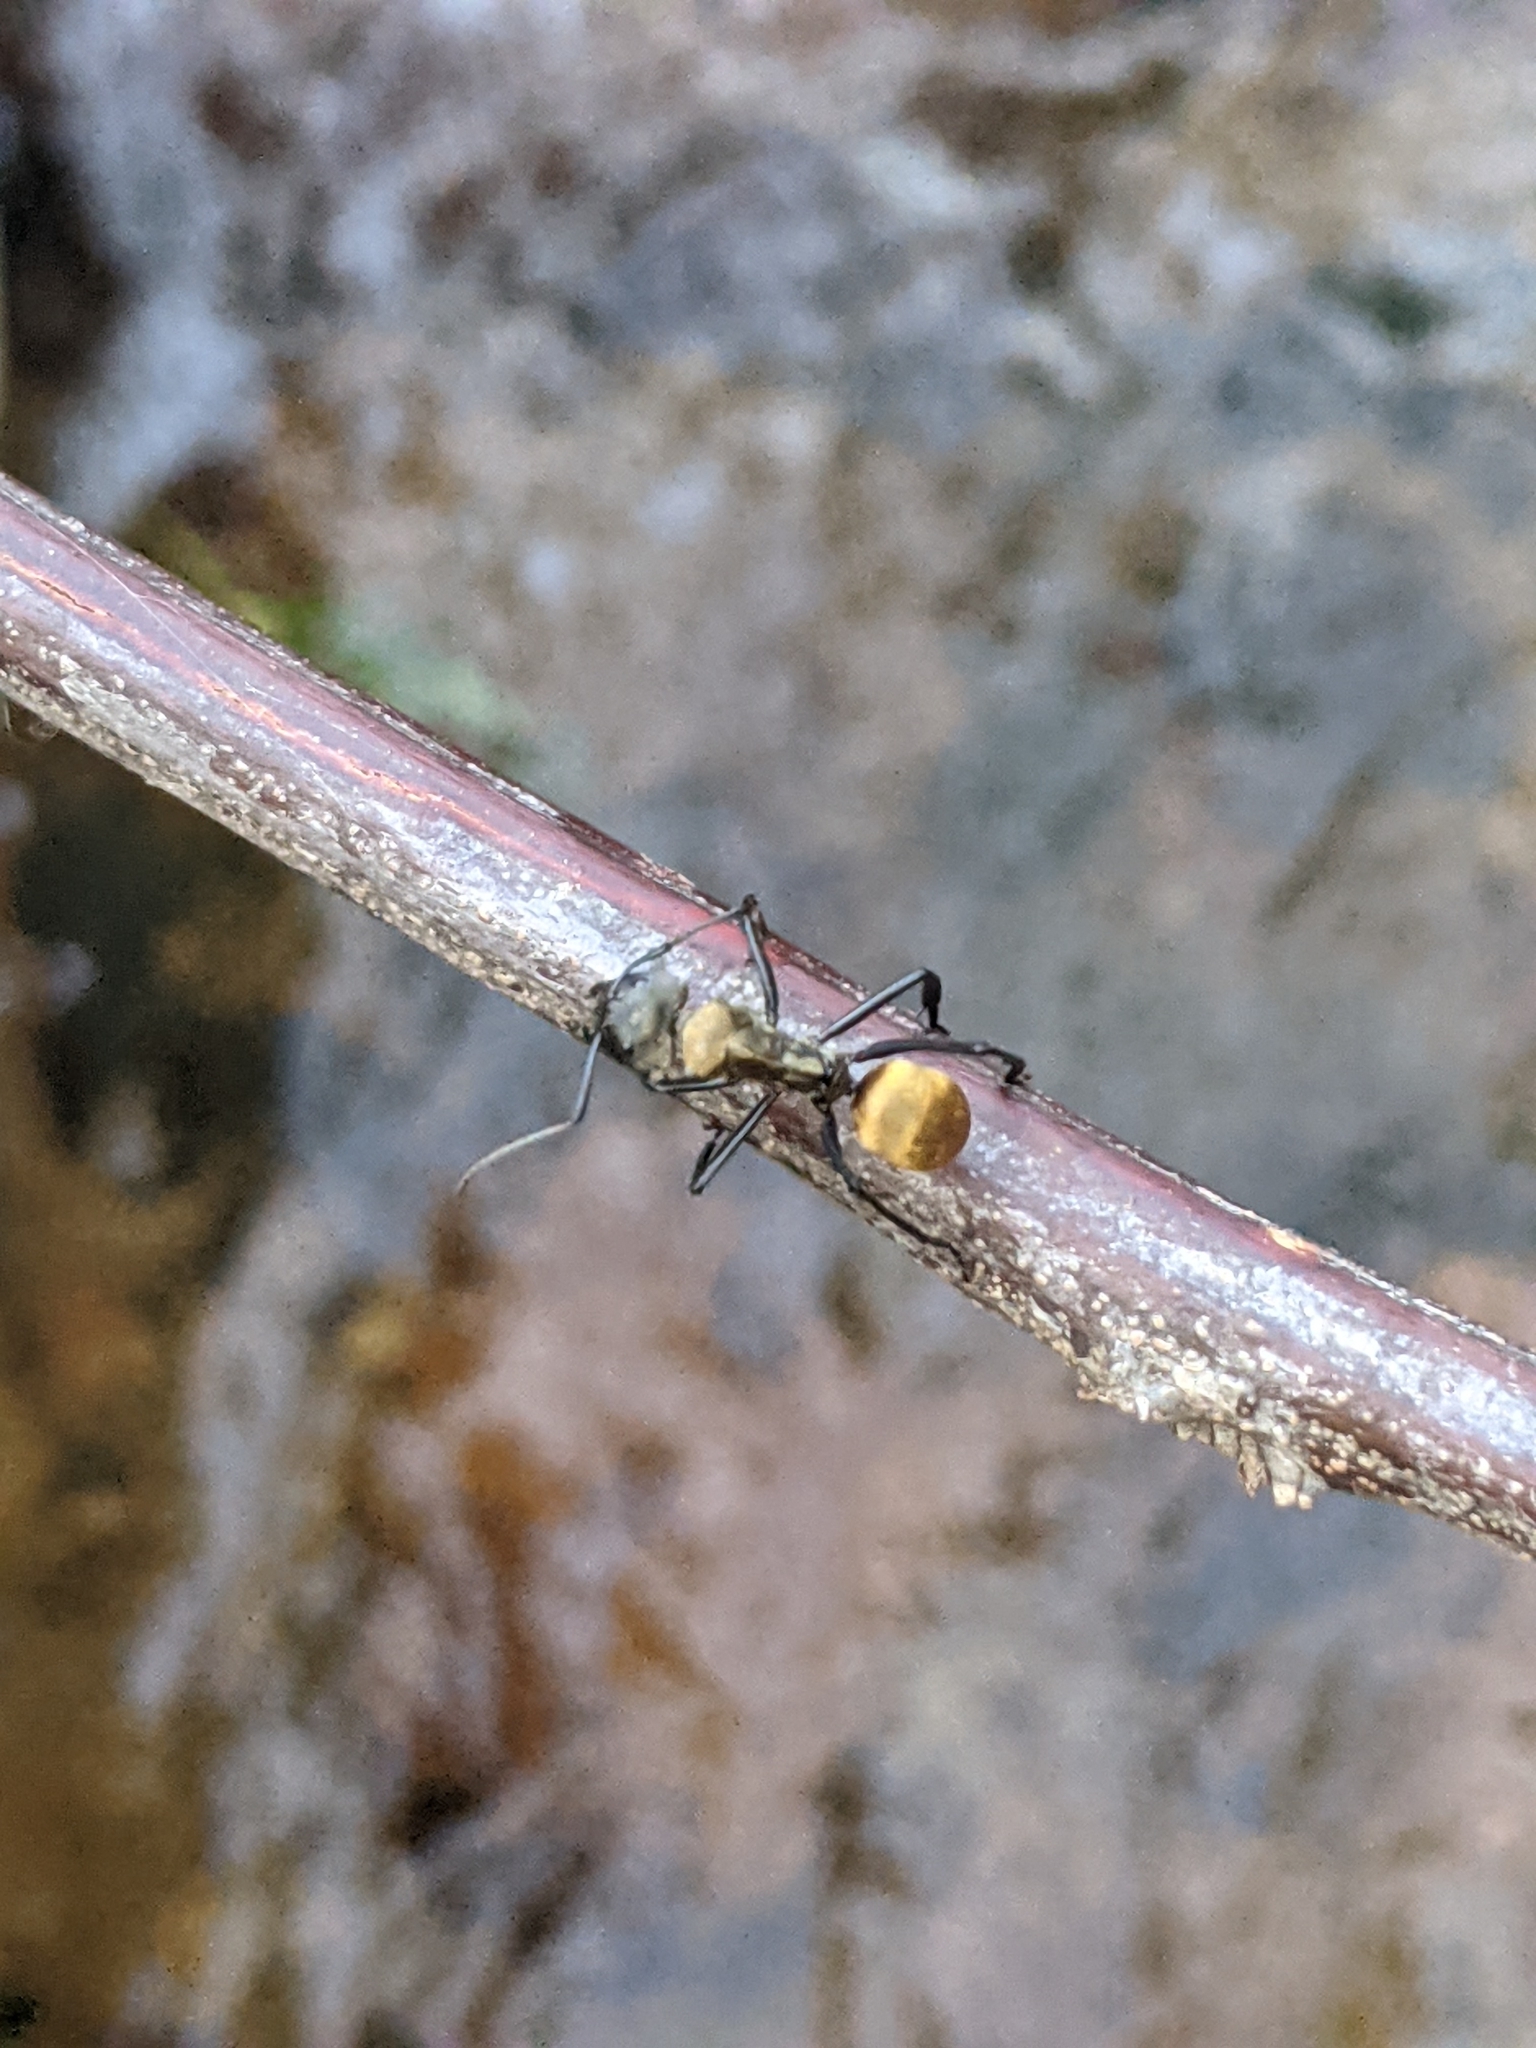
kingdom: Animalia
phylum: Arthropoda
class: Insecta
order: Hymenoptera
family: Formicidae
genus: Camponotus
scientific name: Camponotus sericeiventris
